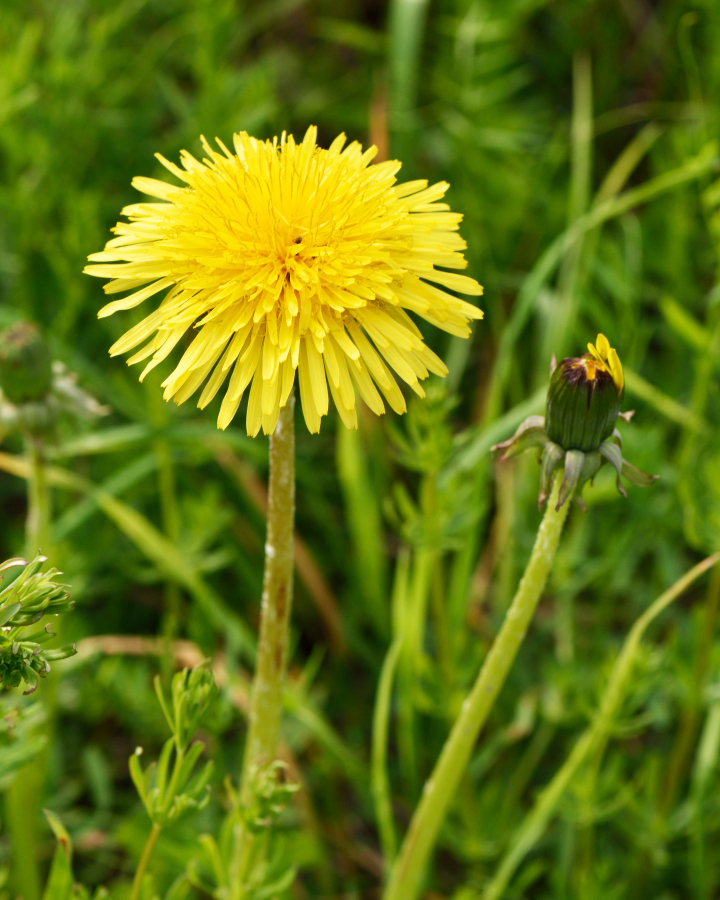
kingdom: Plantae
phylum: Tracheophyta
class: Magnoliopsida
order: Asterales
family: Asteraceae
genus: Taraxacum
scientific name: Taraxacum officinale
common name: Common dandelion
